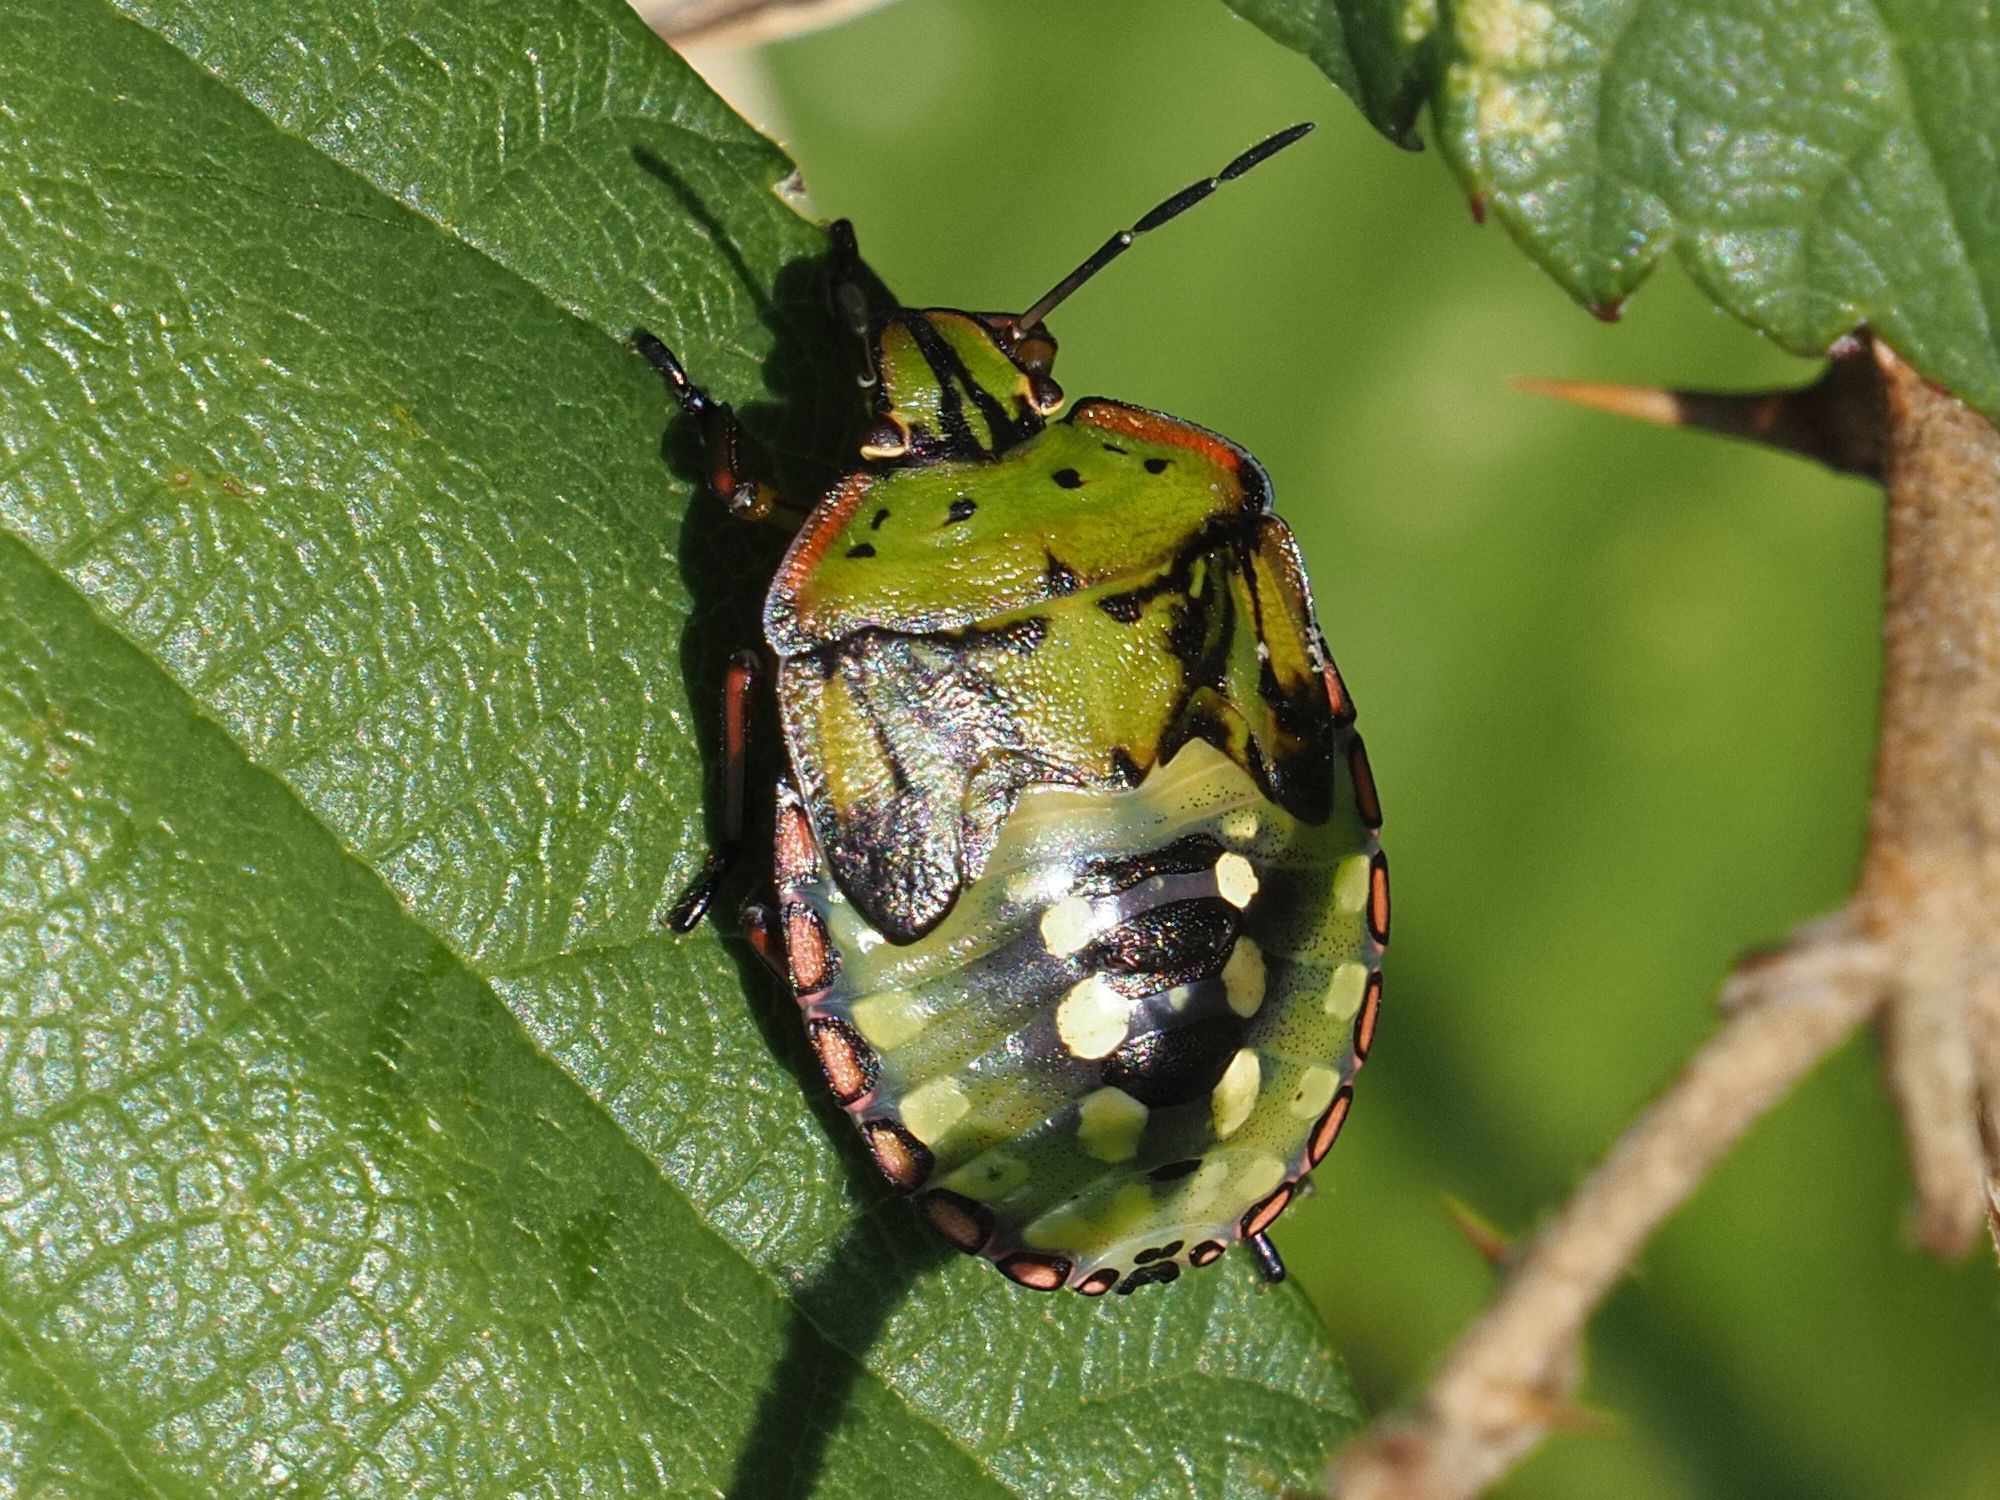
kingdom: Animalia
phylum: Arthropoda
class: Insecta
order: Hemiptera
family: Pentatomidae
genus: Nezara
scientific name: Nezara viridula
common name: Southern green stink bug
